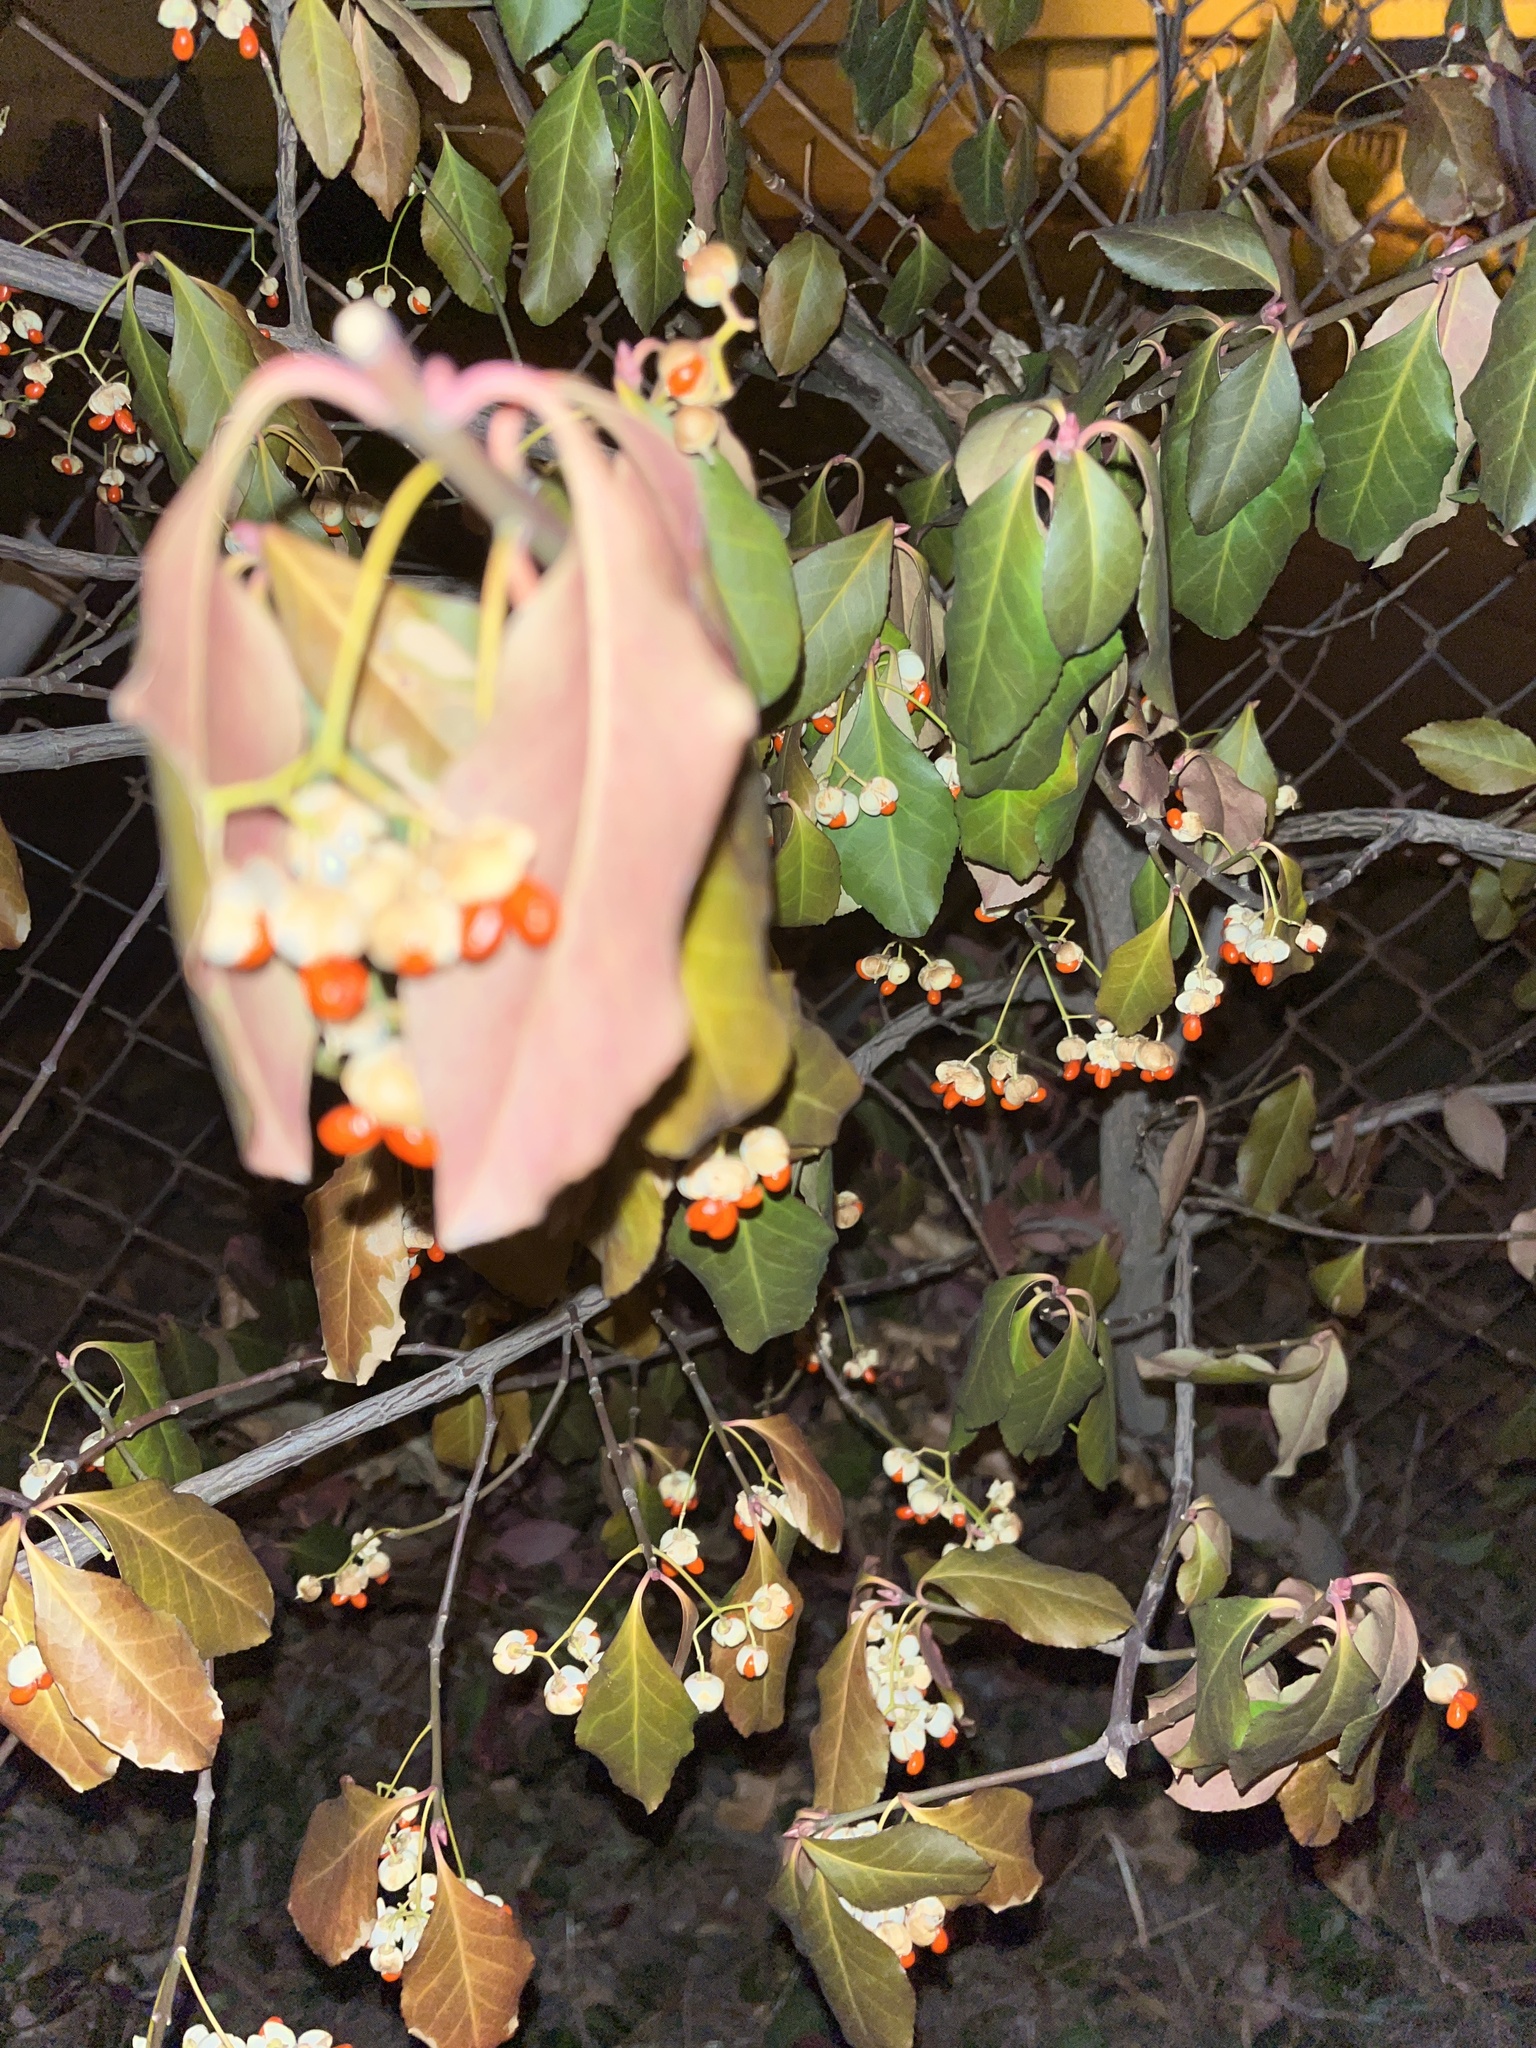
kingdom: Plantae
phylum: Tracheophyta
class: Magnoliopsida
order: Celastrales
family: Celastraceae
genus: Euonymus
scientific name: Euonymus fortunei
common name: Climbing euonymus
